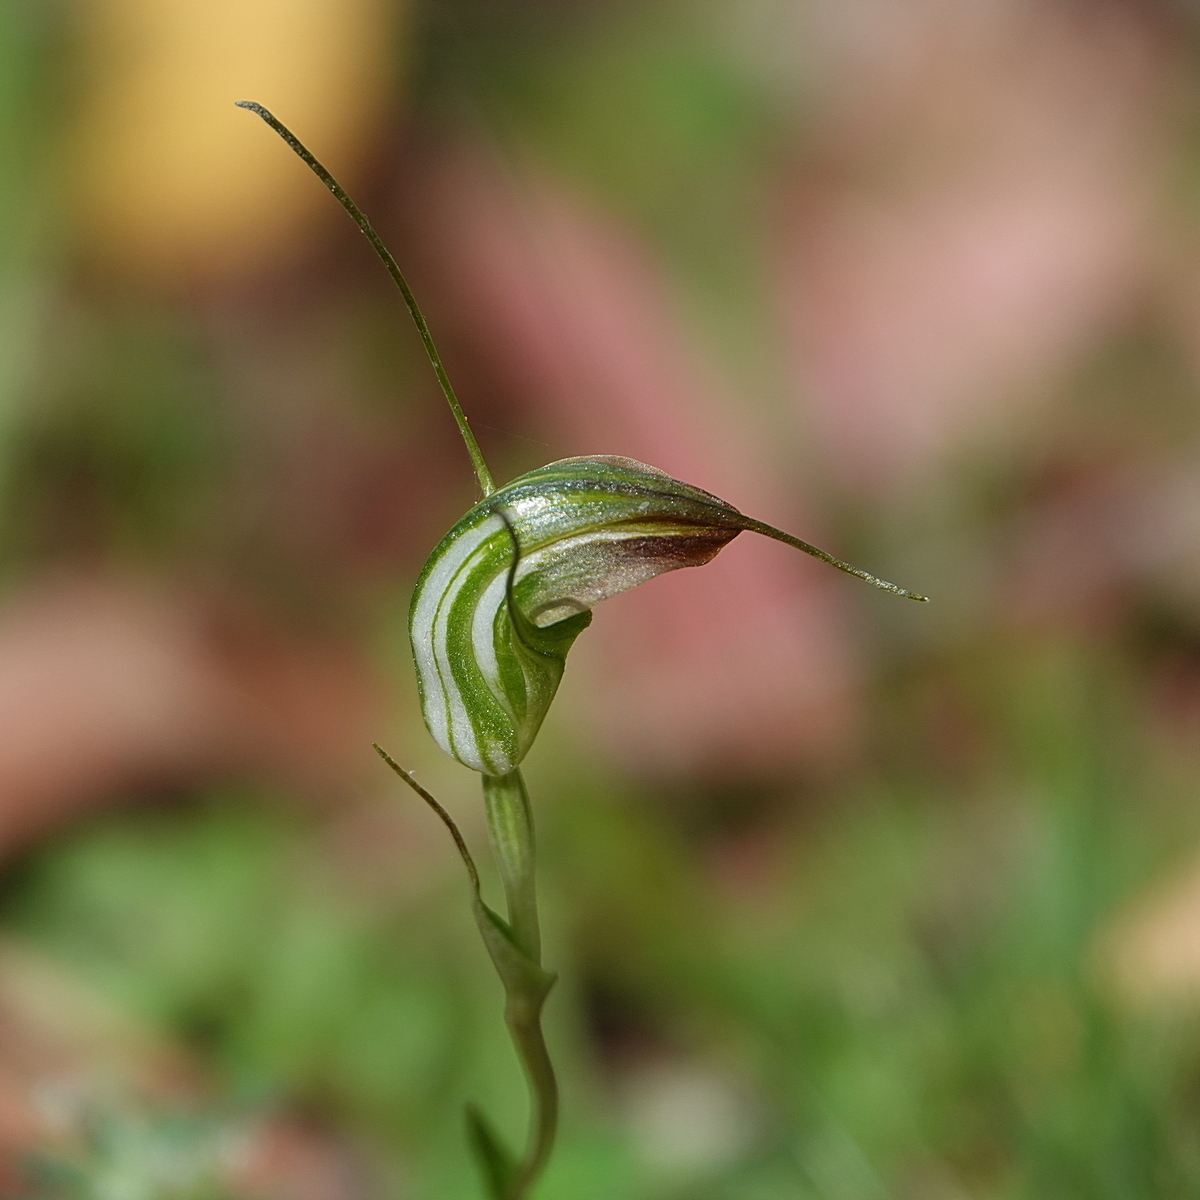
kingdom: Plantae
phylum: Tracheophyta
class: Liliopsida
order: Asparagales
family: Orchidaceae
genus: Pterostylis
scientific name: Pterostylis decurva
